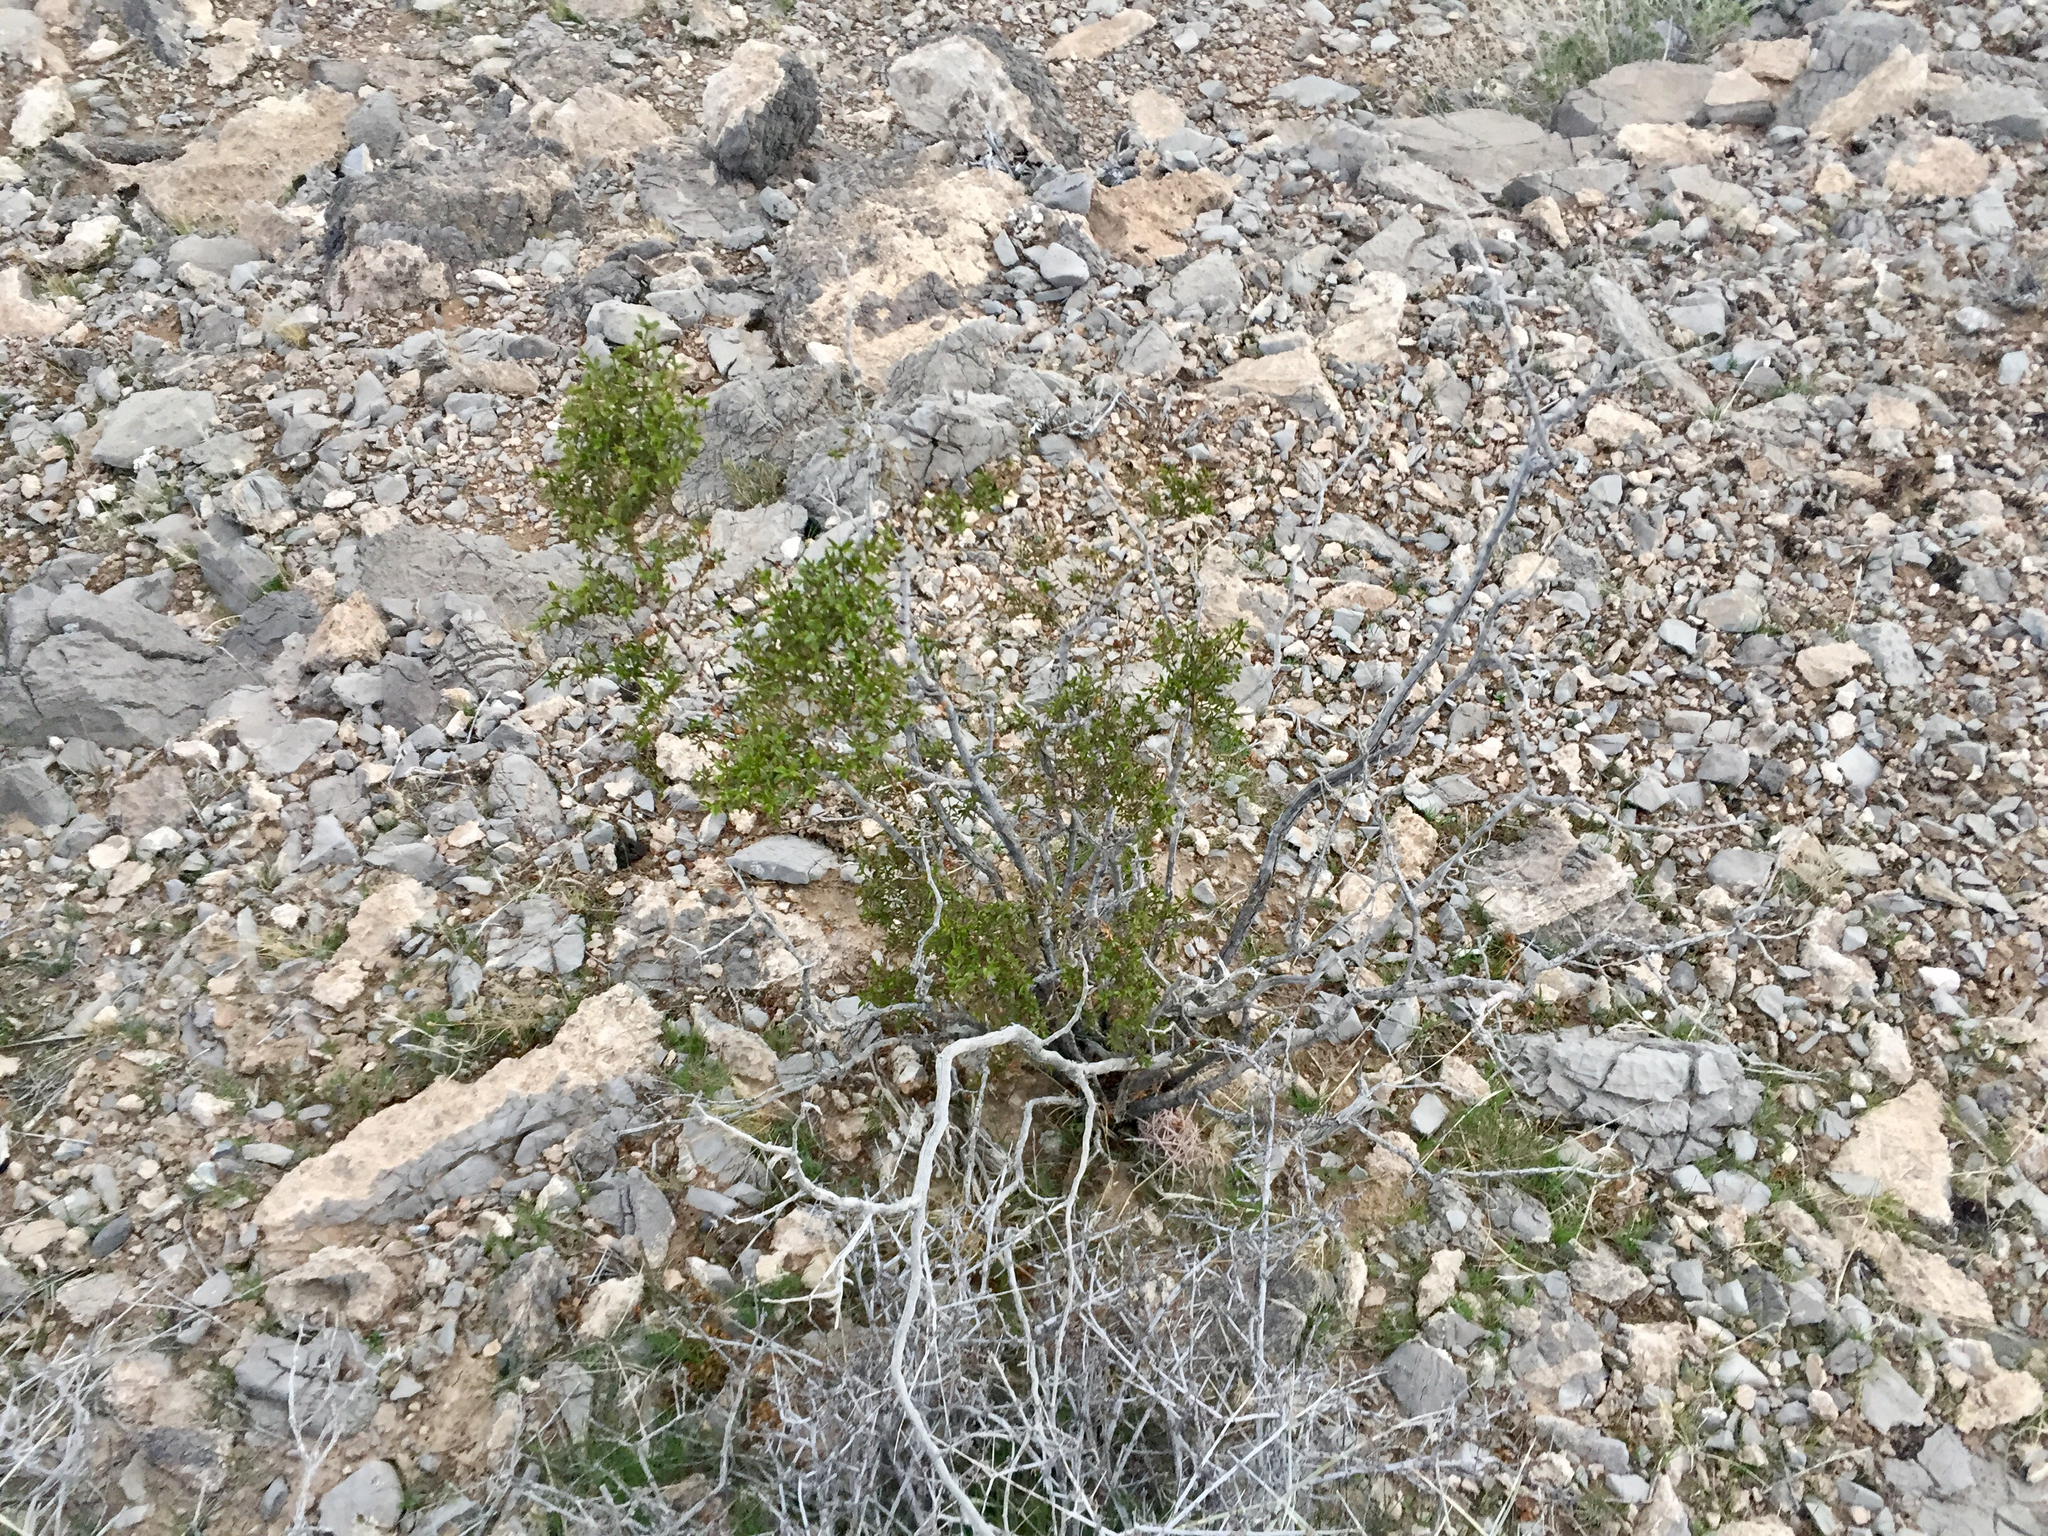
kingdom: Plantae
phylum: Tracheophyta
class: Magnoliopsida
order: Zygophyllales
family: Zygophyllaceae
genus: Larrea
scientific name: Larrea tridentata
